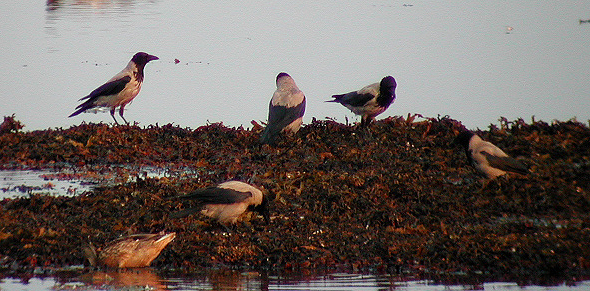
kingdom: Animalia
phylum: Chordata
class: Aves
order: Passeriformes
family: Corvidae
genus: Corvus
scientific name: Corvus cornix
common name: Hooded crow
